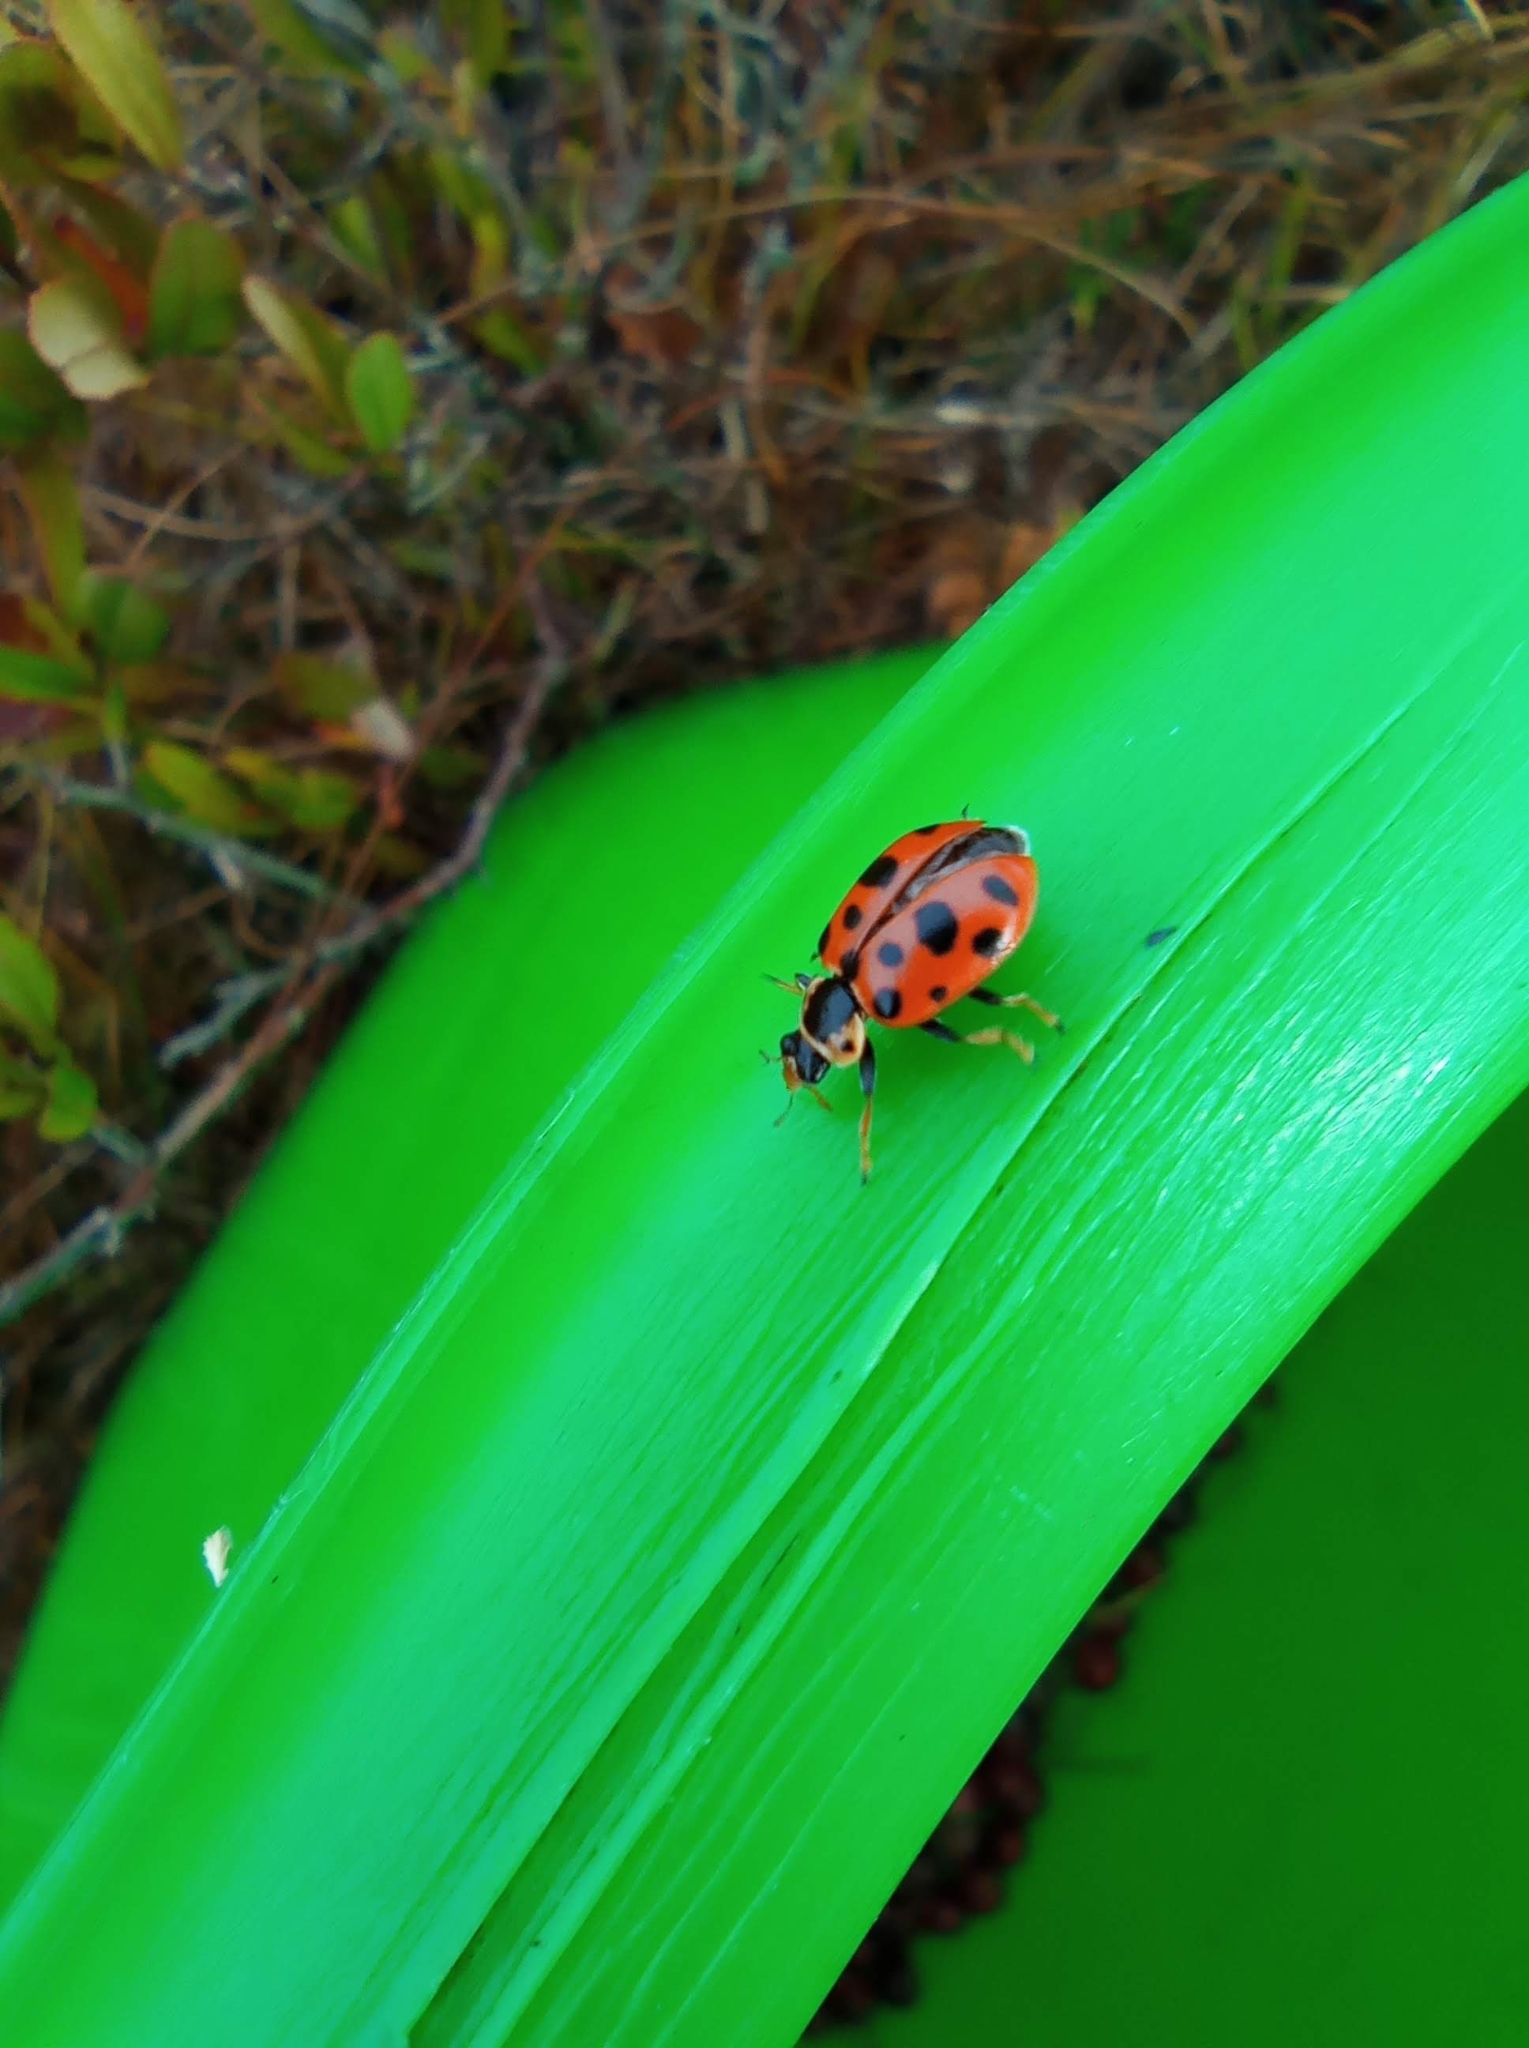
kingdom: Animalia
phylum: Arthropoda
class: Insecta
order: Coleoptera
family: Coccinellidae
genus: Hippodamia
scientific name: Hippodamia tredecimpunctata
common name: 13-spot ladybird
